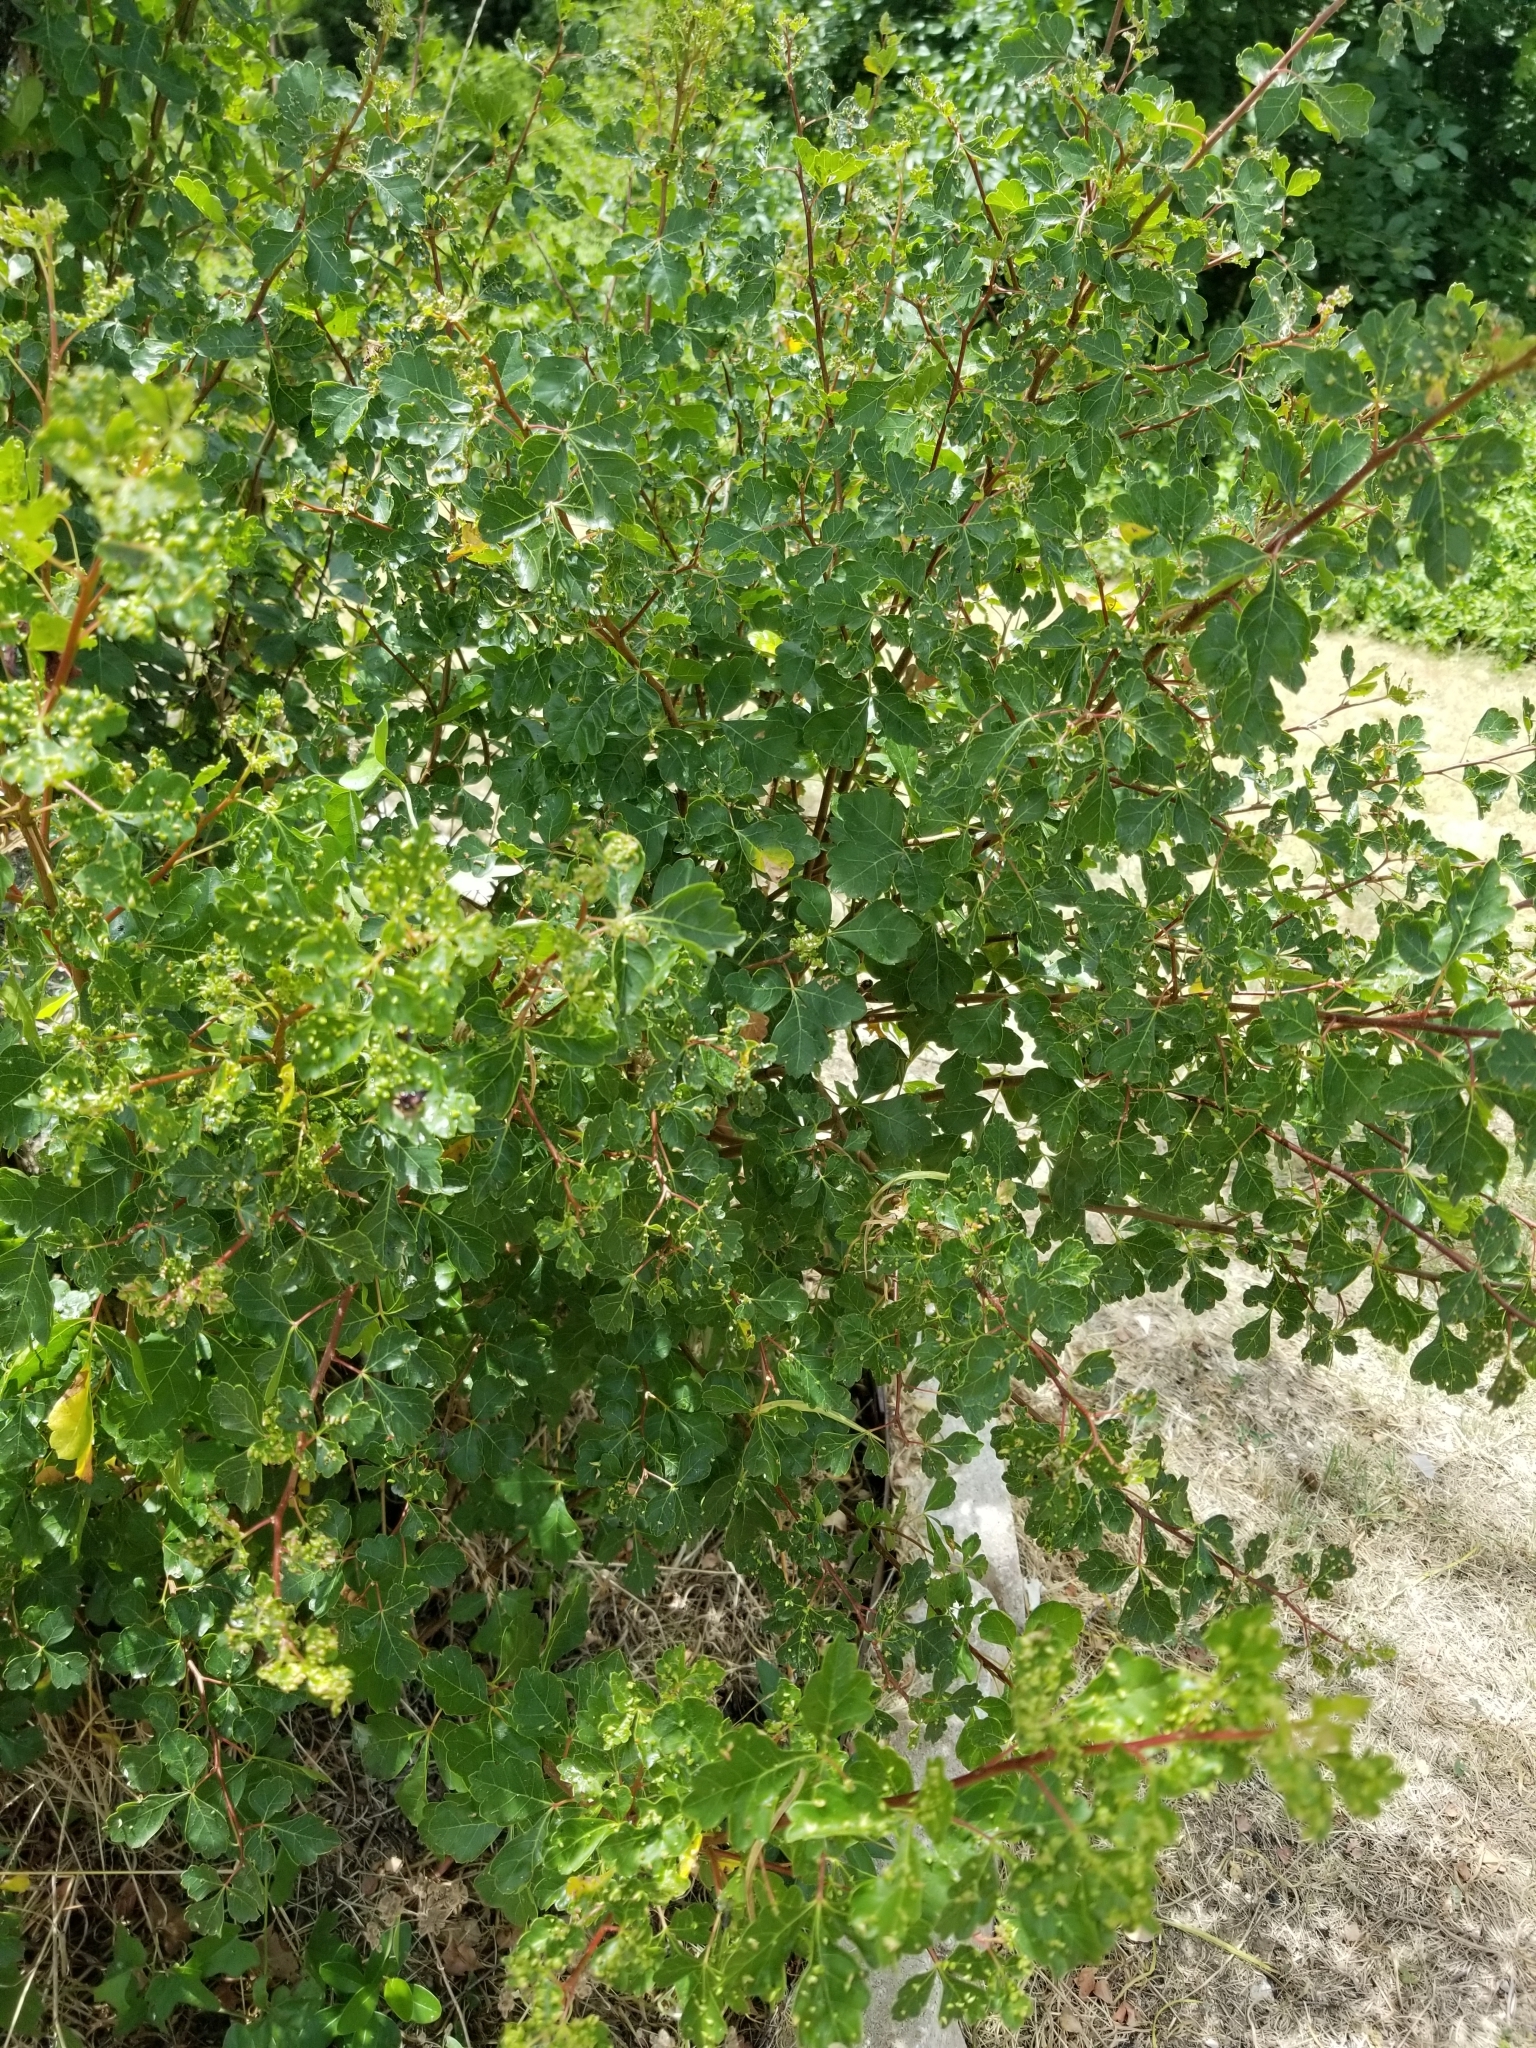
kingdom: Plantae
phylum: Tracheophyta
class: Magnoliopsida
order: Sapindales
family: Anacardiaceae
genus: Rhus
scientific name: Rhus aromatica
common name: Aromatic sumac
